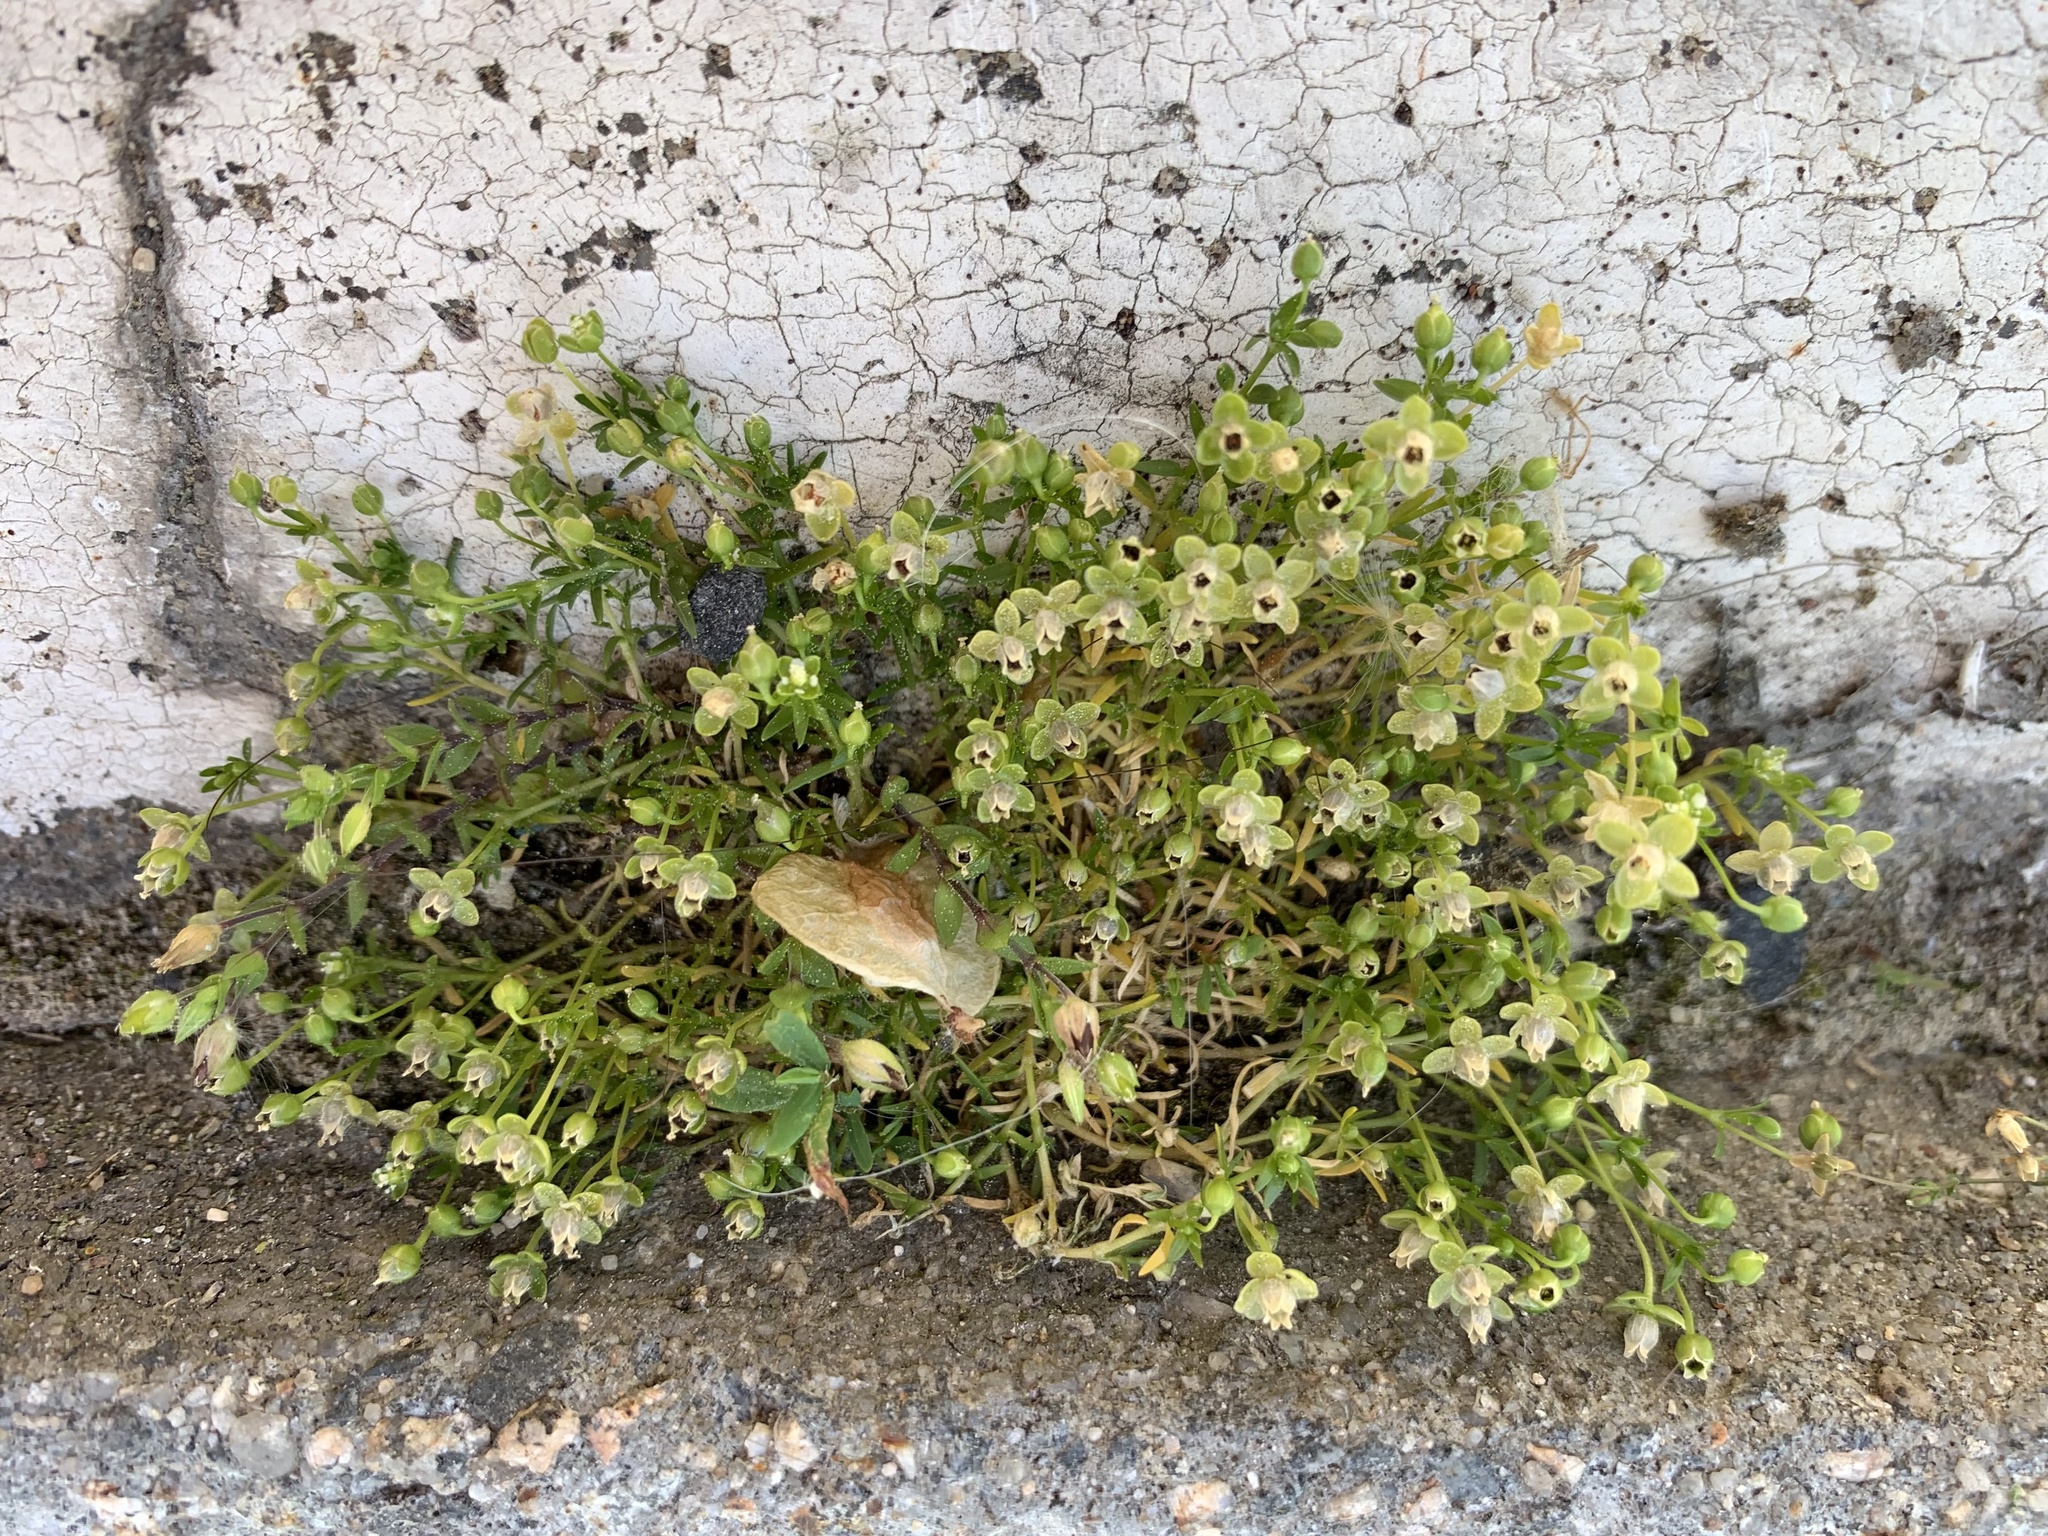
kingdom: Plantae
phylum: Tracheophyta
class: Magnoliopsida
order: Caryophyllales
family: Caryophyllaceae
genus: Sagina
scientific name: Sagina procumbens
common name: Procumbent pearlwort
